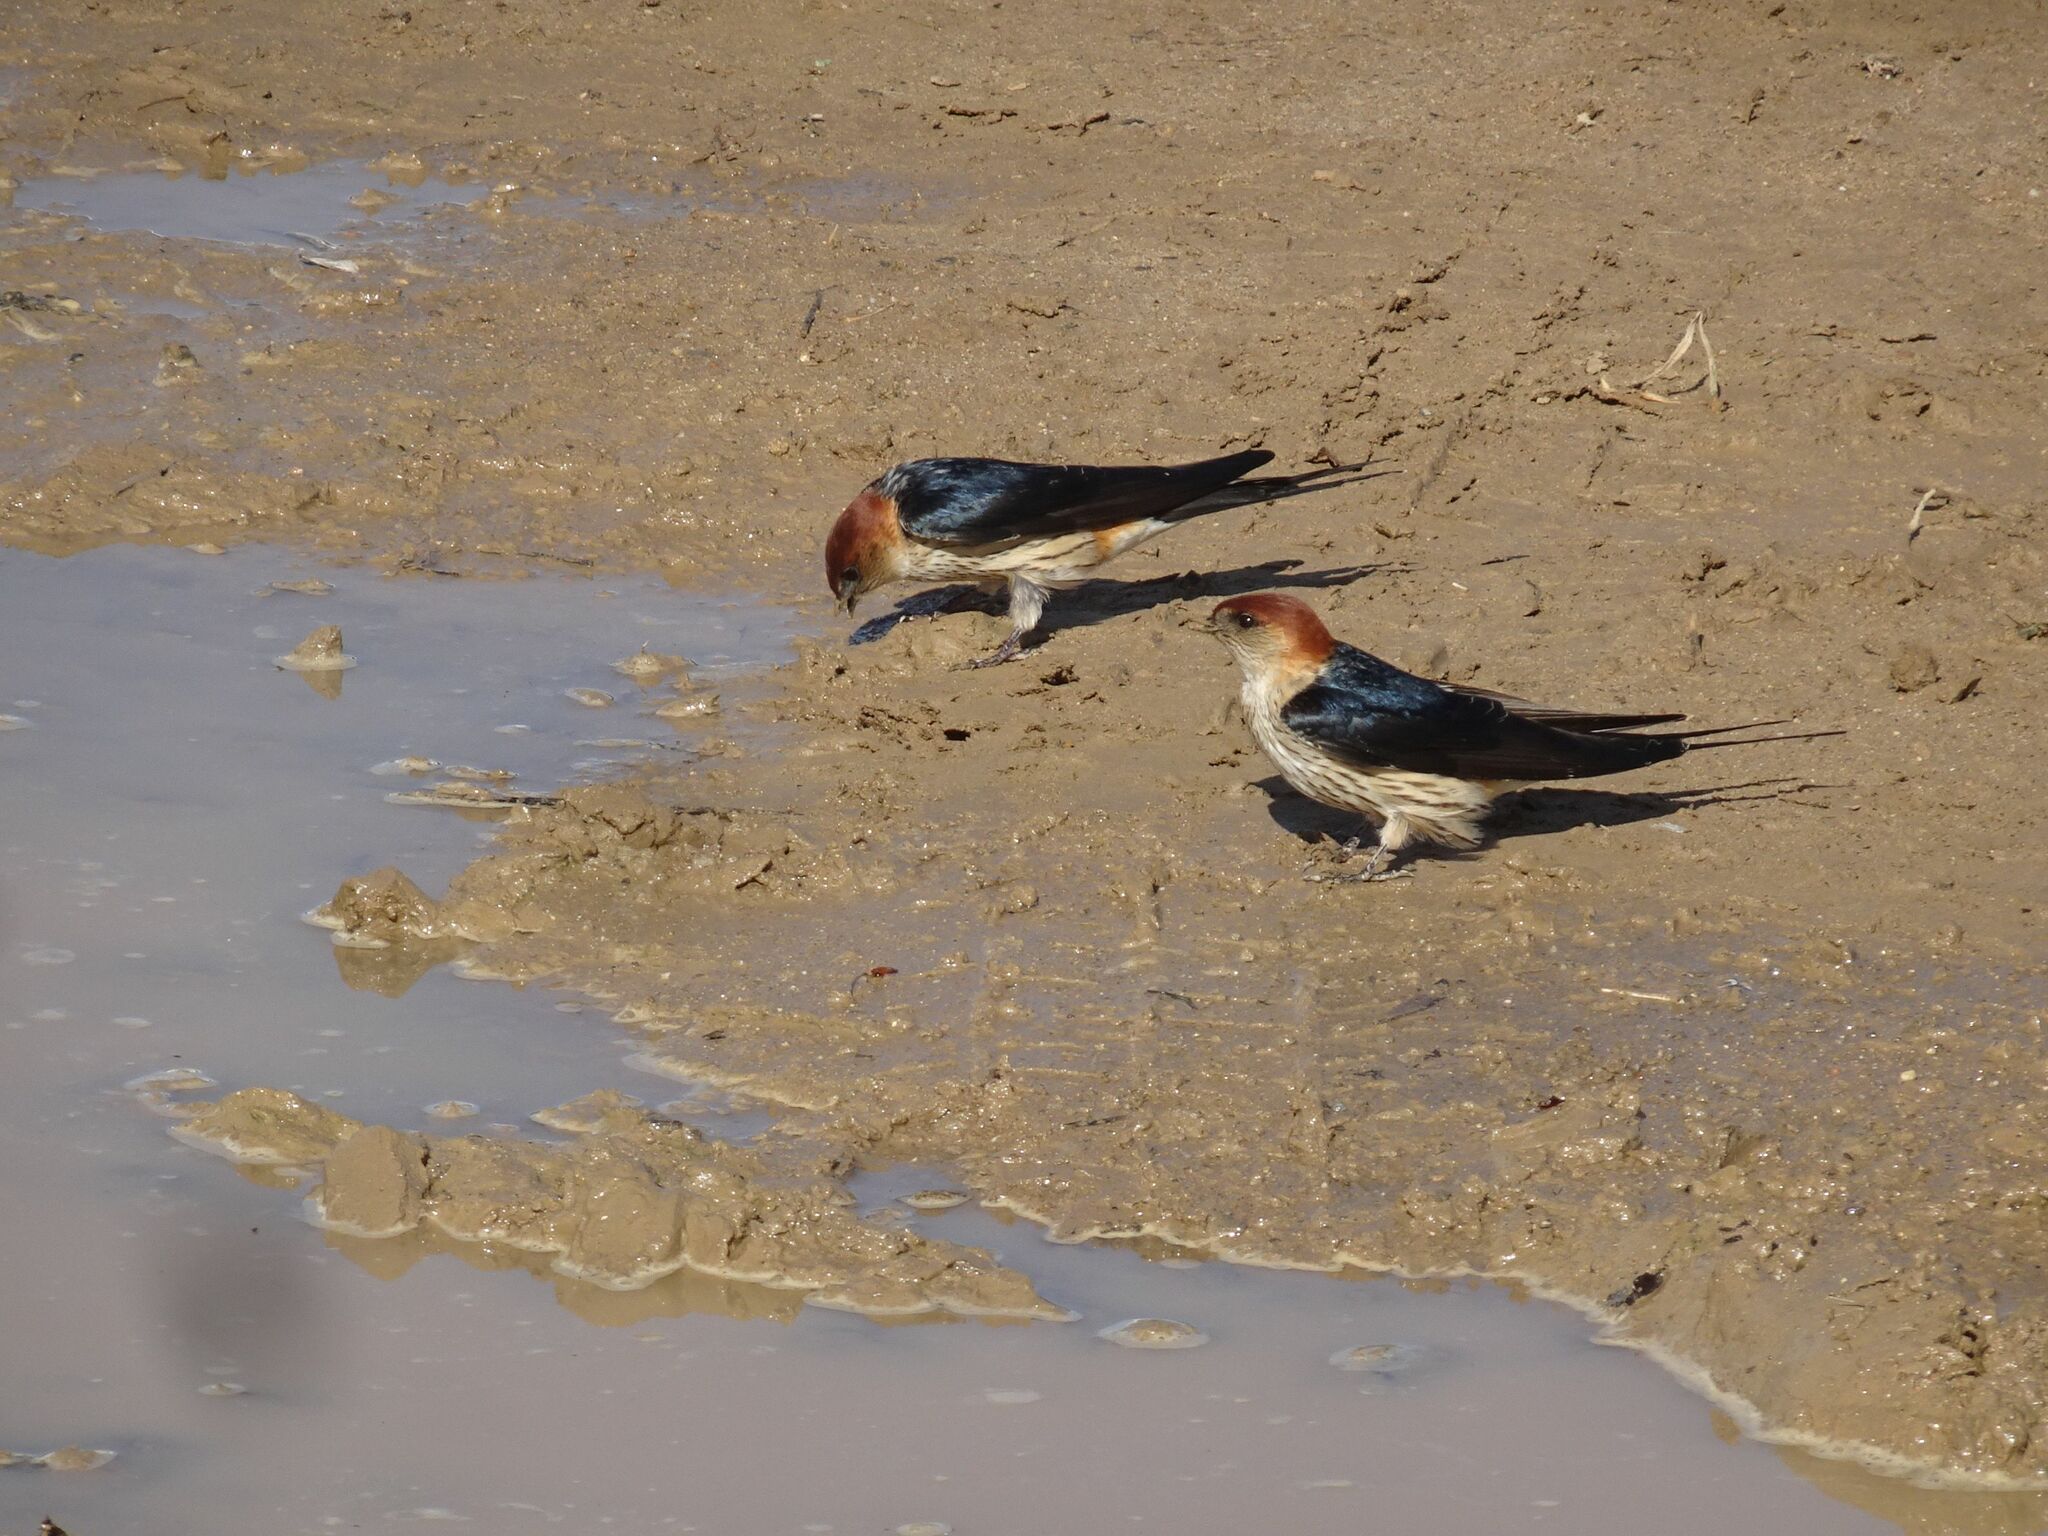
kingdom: Animalia
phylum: Chordata
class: Aves
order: Passeriformes
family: Hirundinidae
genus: Cecropis
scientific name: Cecropis cucullata
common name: Greater striped-swallow
